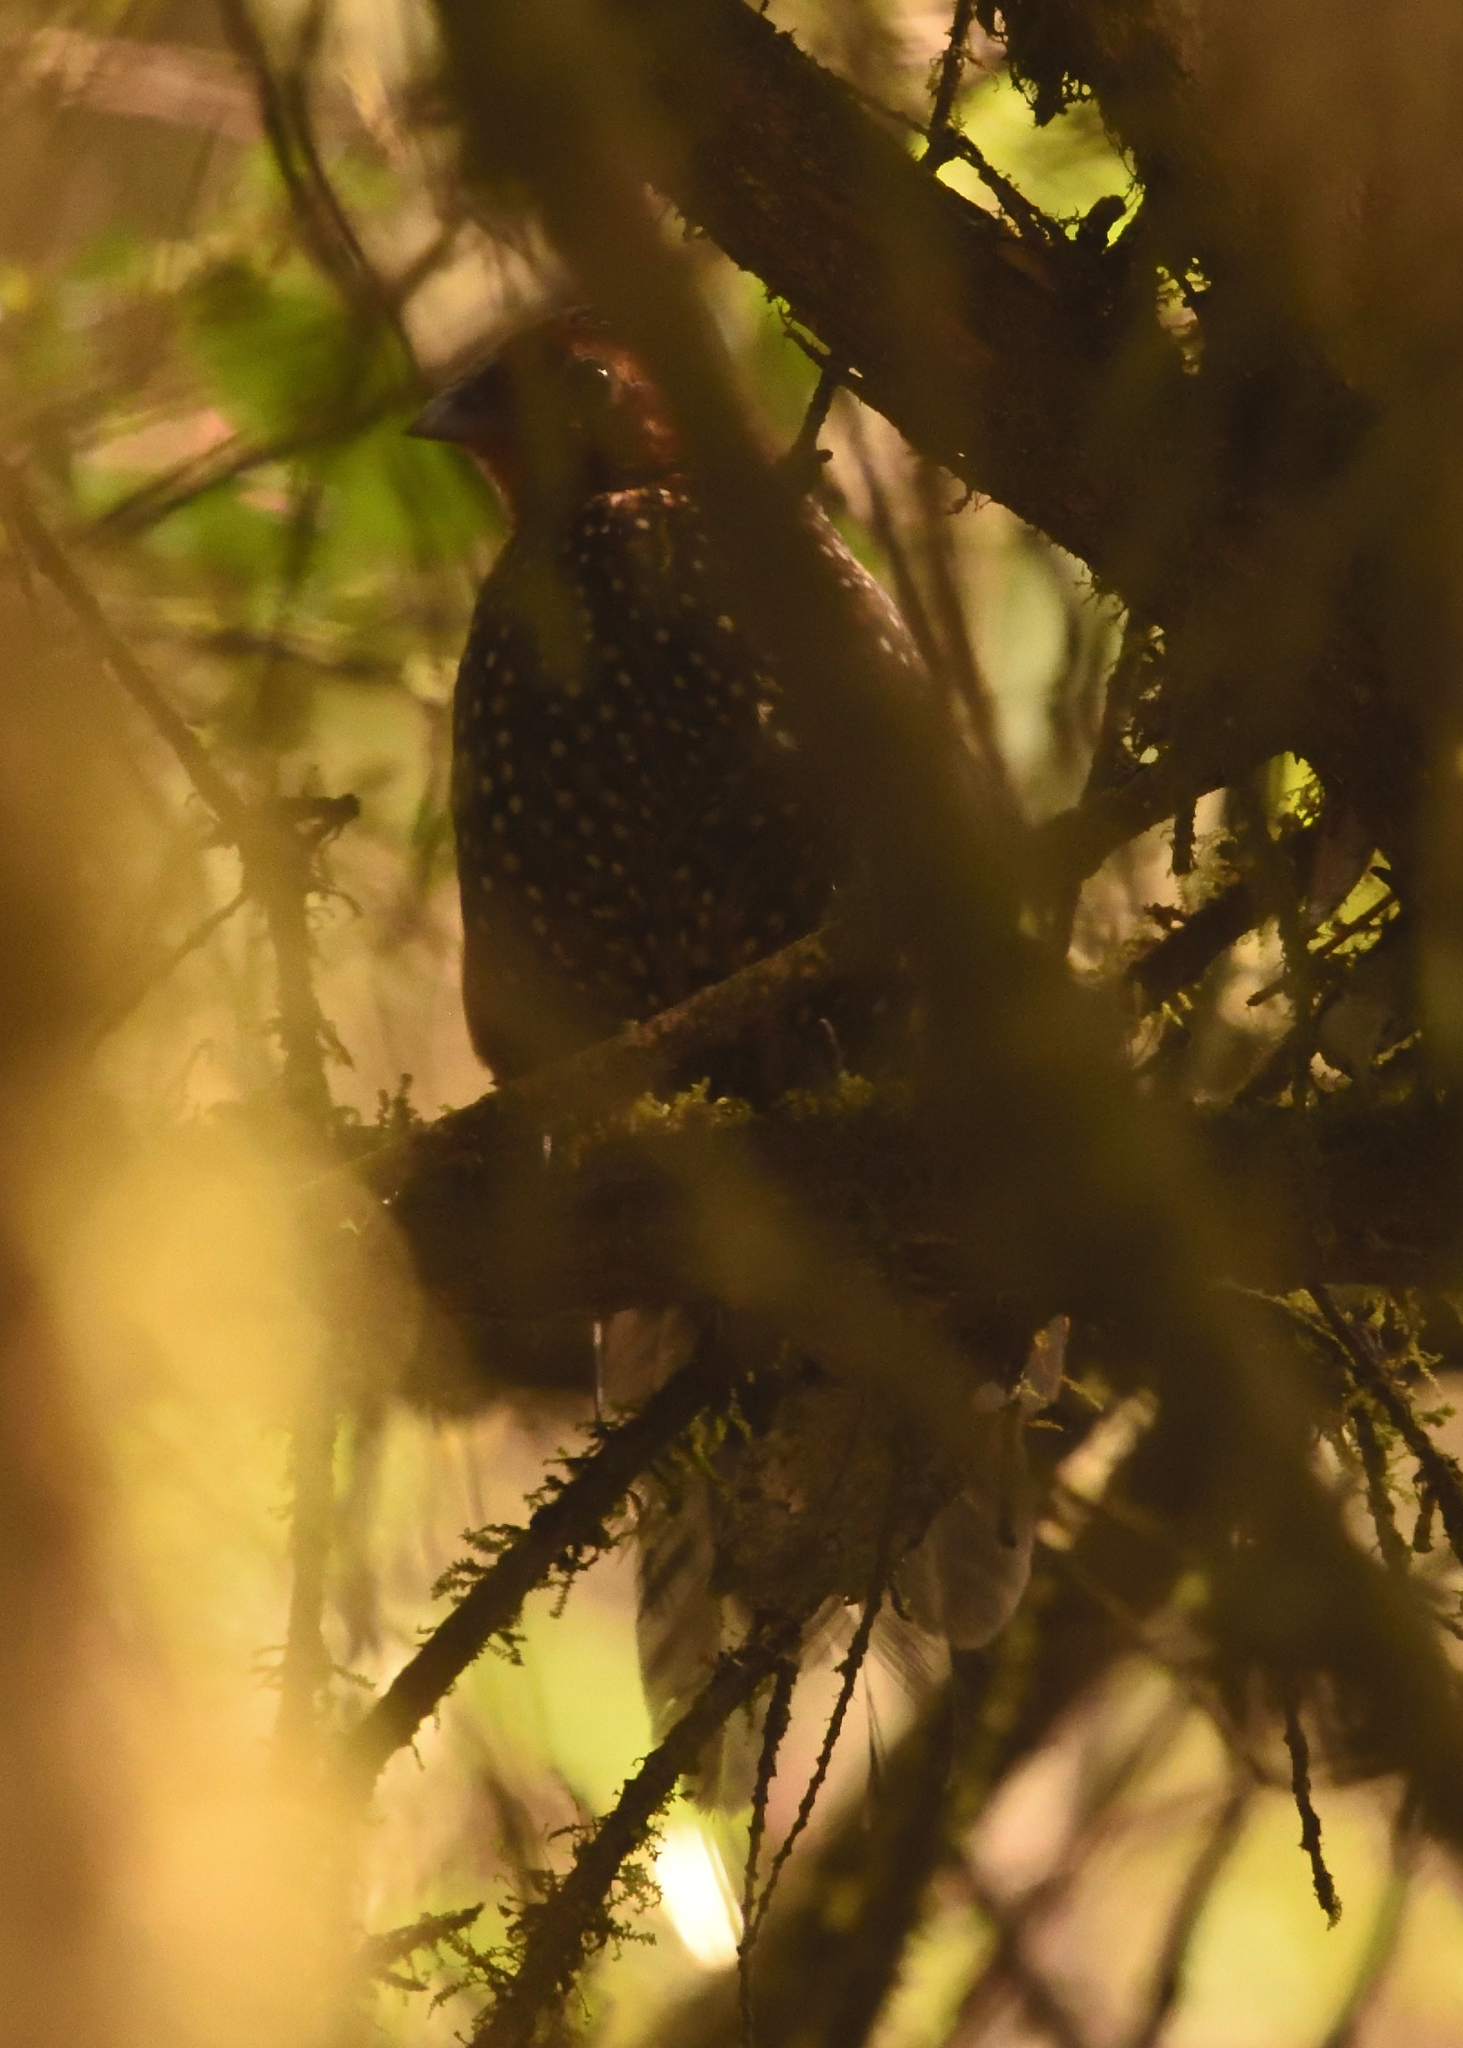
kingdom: Animalia
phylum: Chordata
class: Aves
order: Passeriformes
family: Rhinocryptidae
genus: Acropternis
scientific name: Acropternis orthonyx
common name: Ocellated tapaculo
